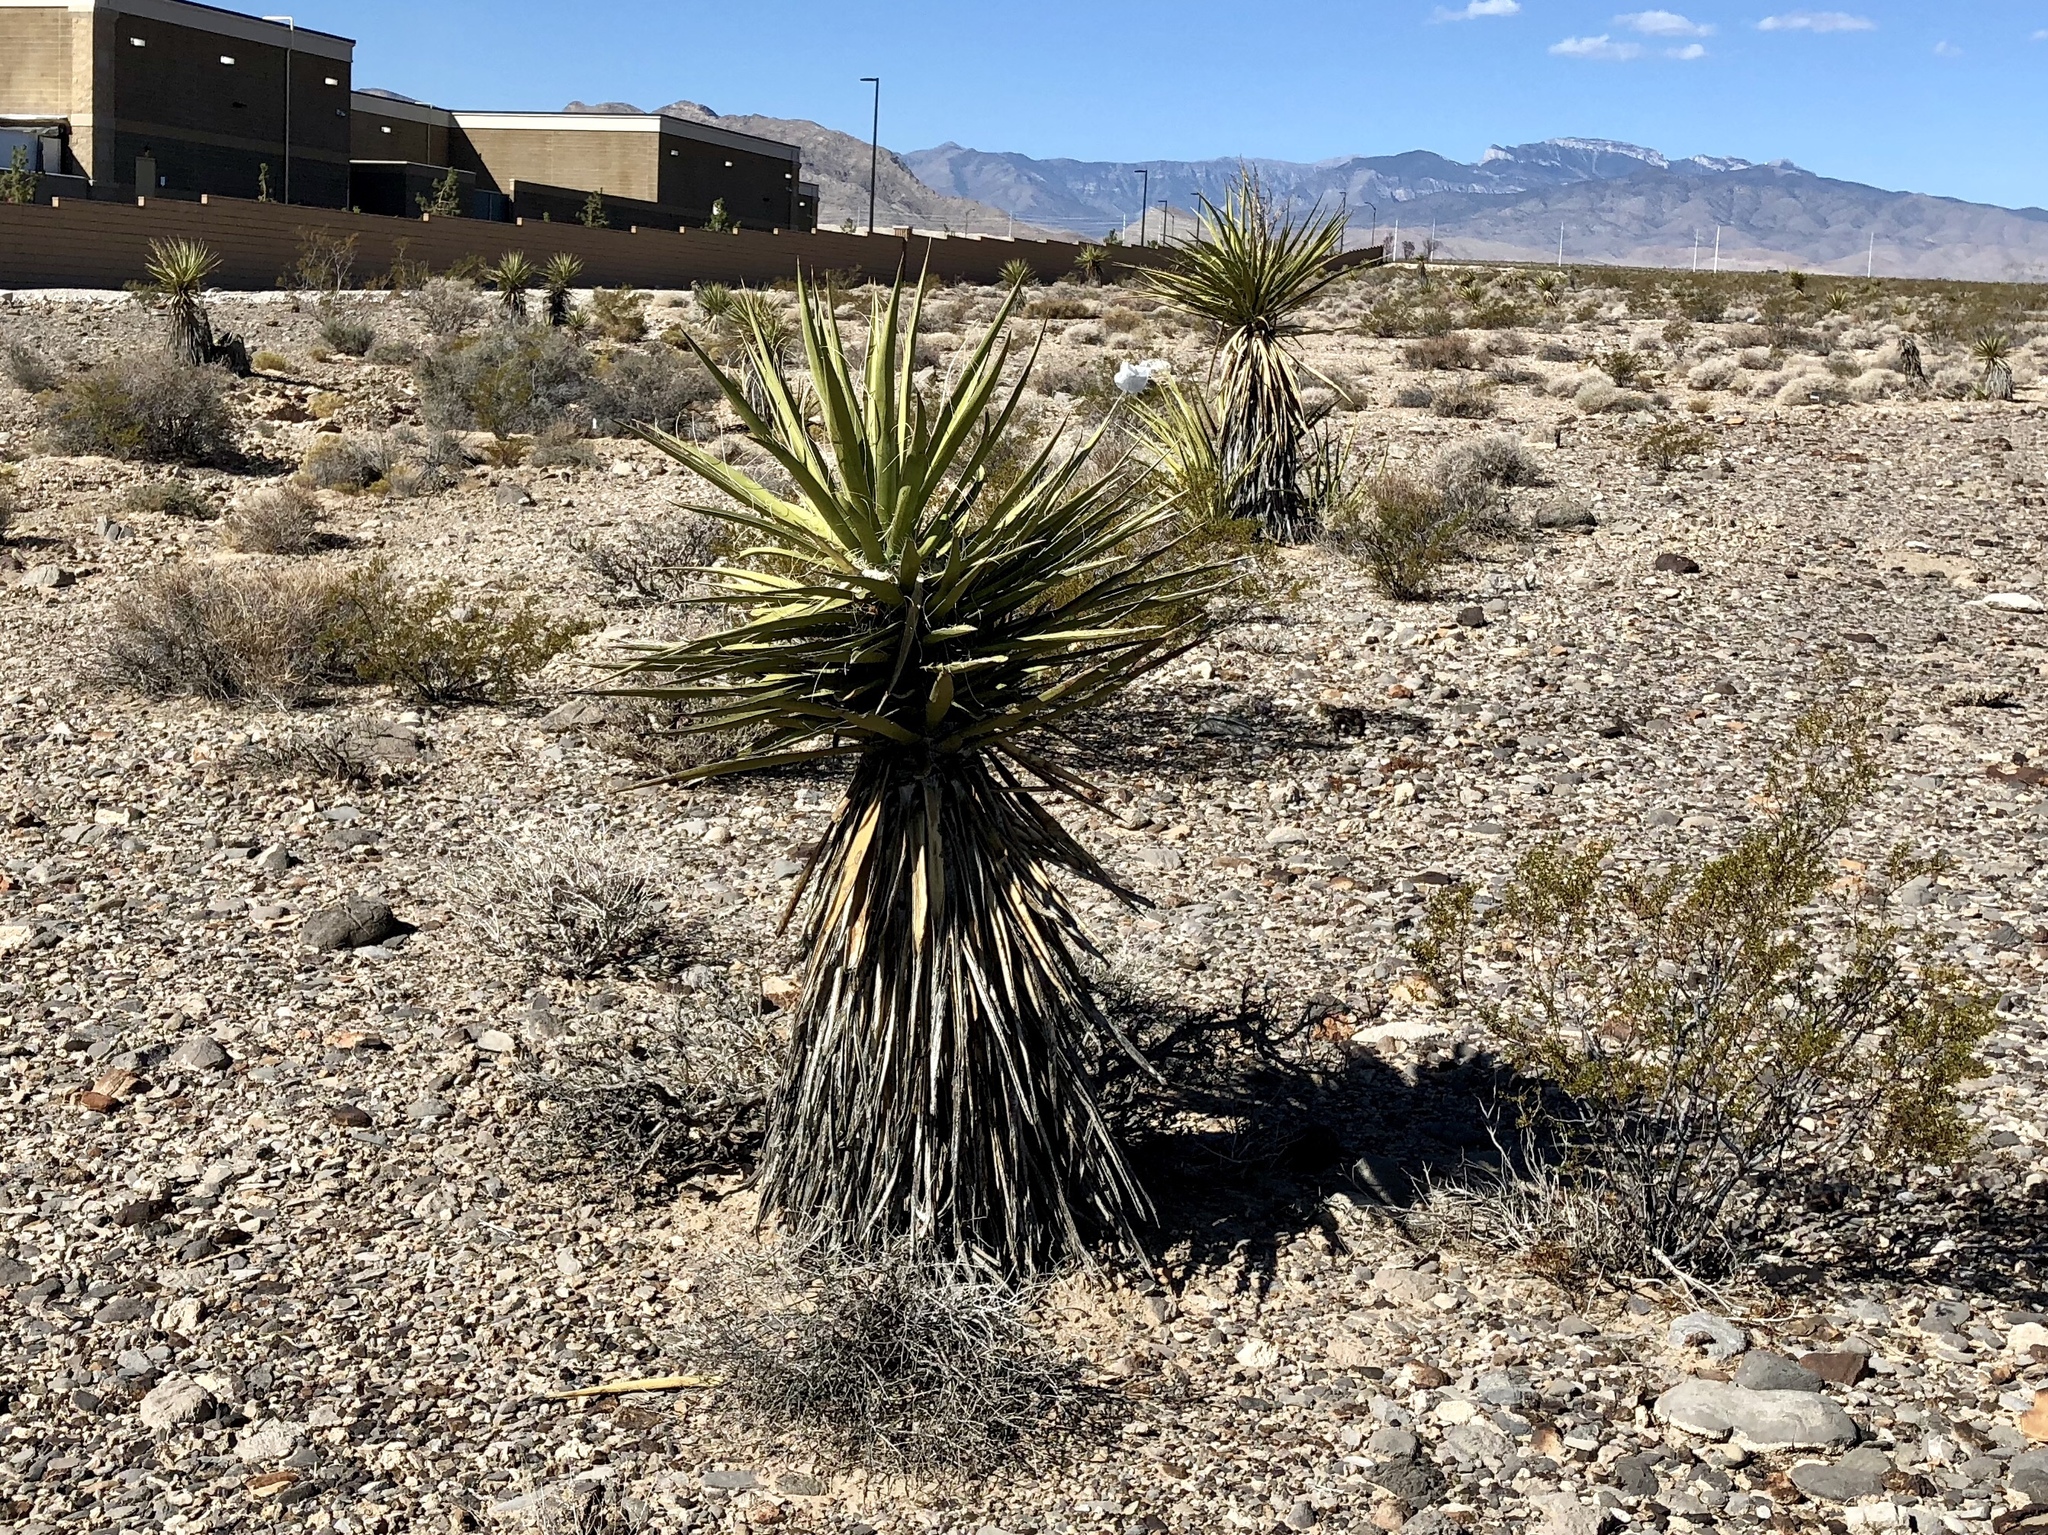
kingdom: Plantae
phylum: Tracheophyta
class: Liliopsida
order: Asparagales
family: Asparagaceae
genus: Yucca
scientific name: Yucca schidigera
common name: Mojave yucca
